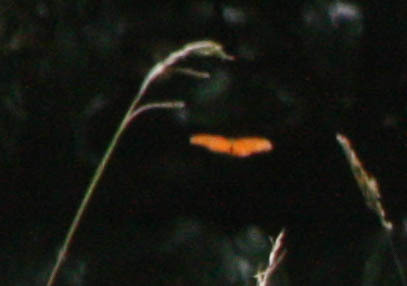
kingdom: Animalia
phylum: Arthropoda
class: Insecta
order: Lepidoptera
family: Nymphalidae
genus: Dione
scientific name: Dione vanillae
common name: Gulf fritillary
